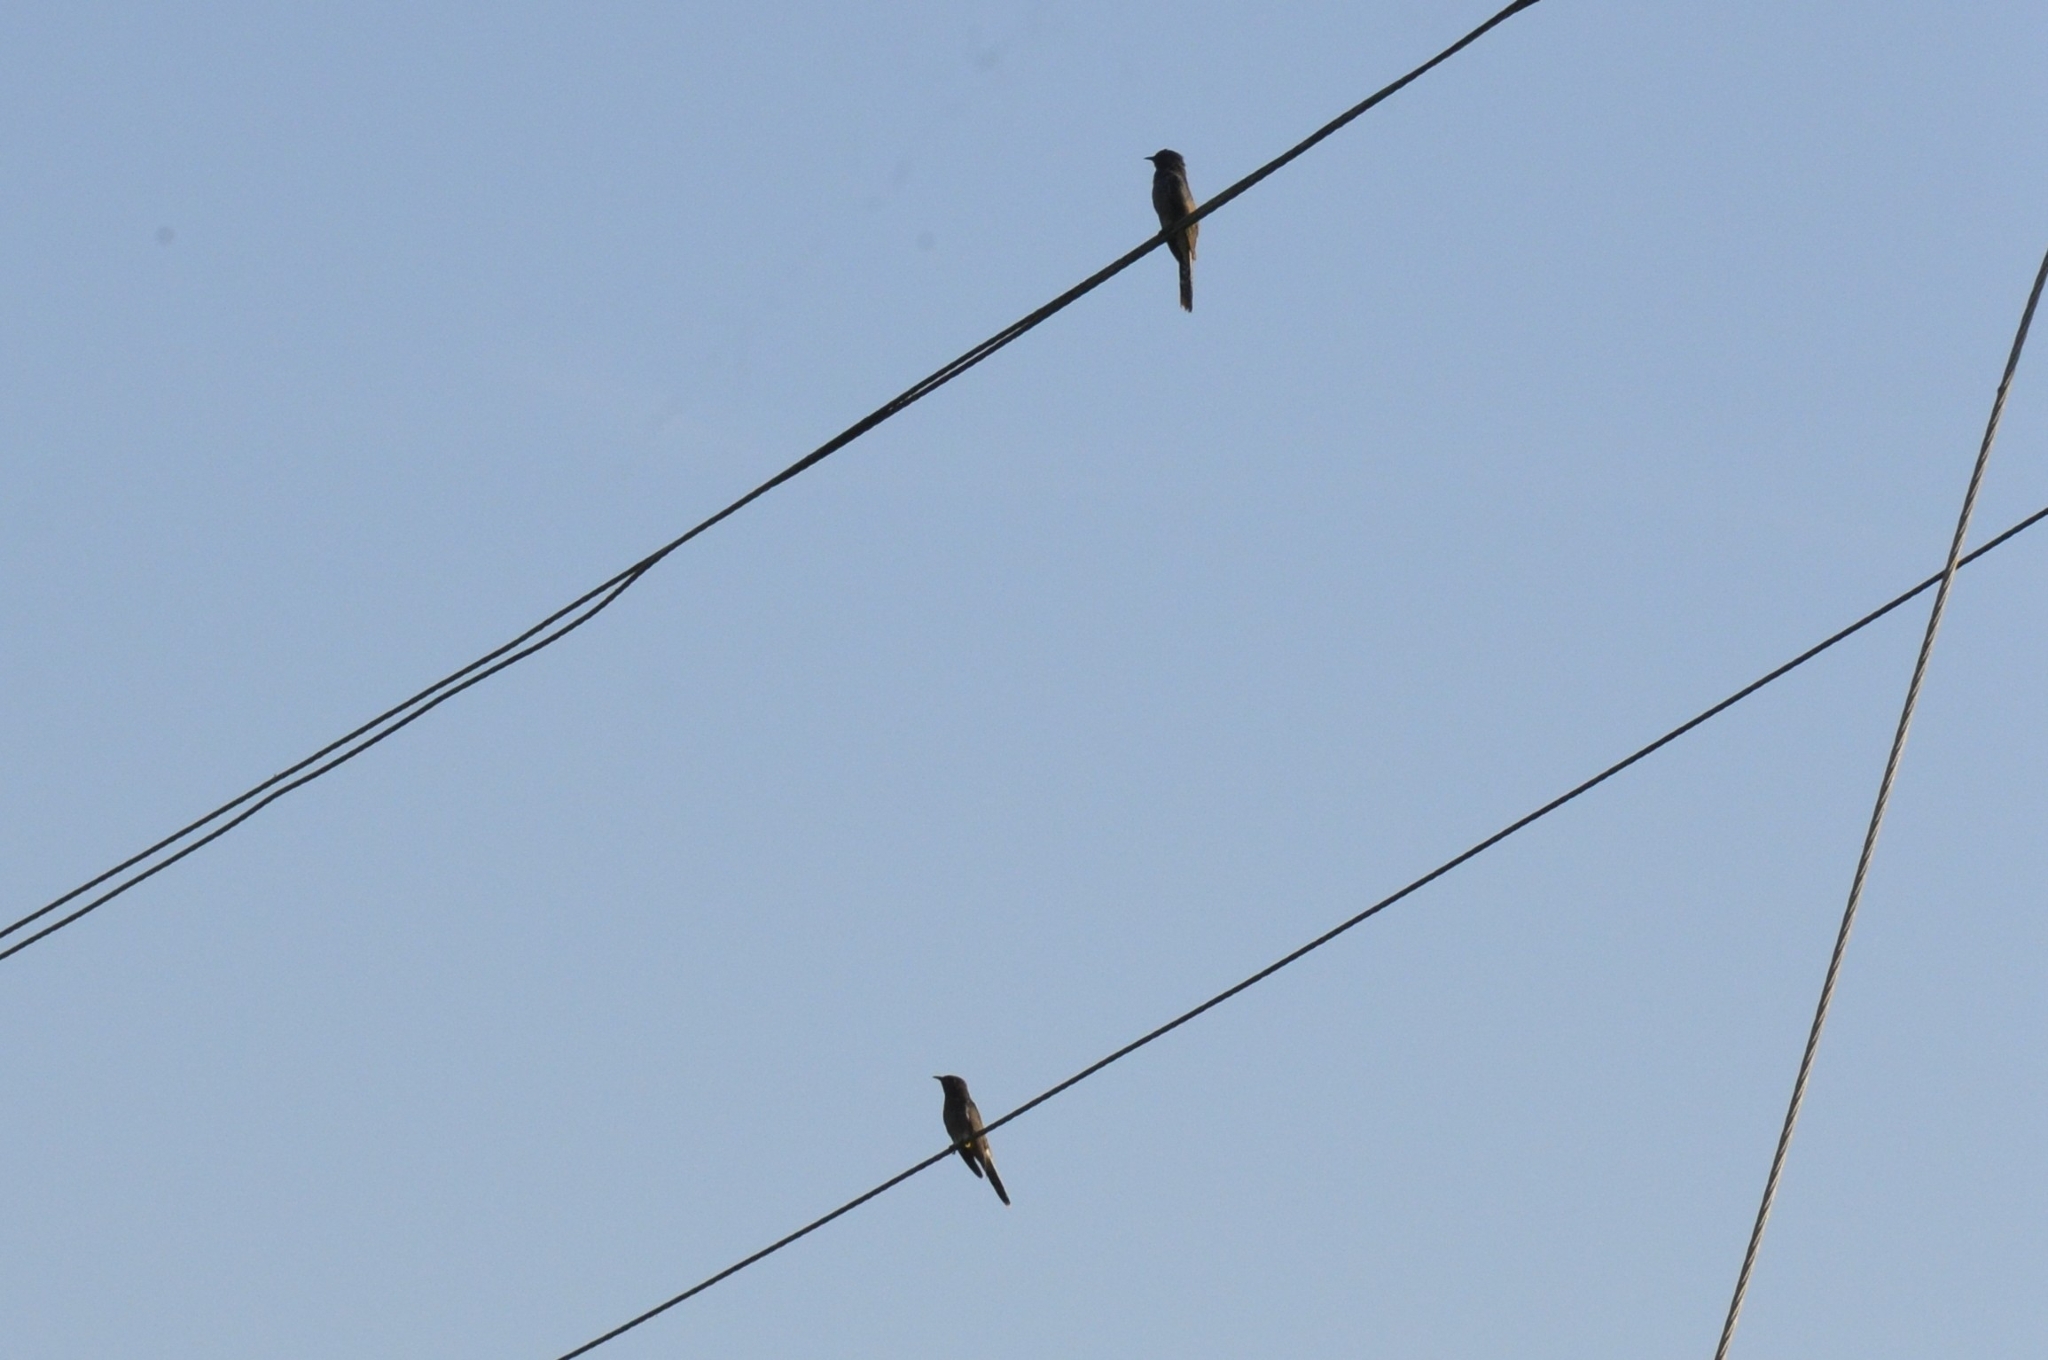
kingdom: Animalia
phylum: Chordata
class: Aves
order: Cuculiformes
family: Cuculidae
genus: Cacomantis
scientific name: Cacomantis passerinus
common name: Grey-bellied cuckoo
